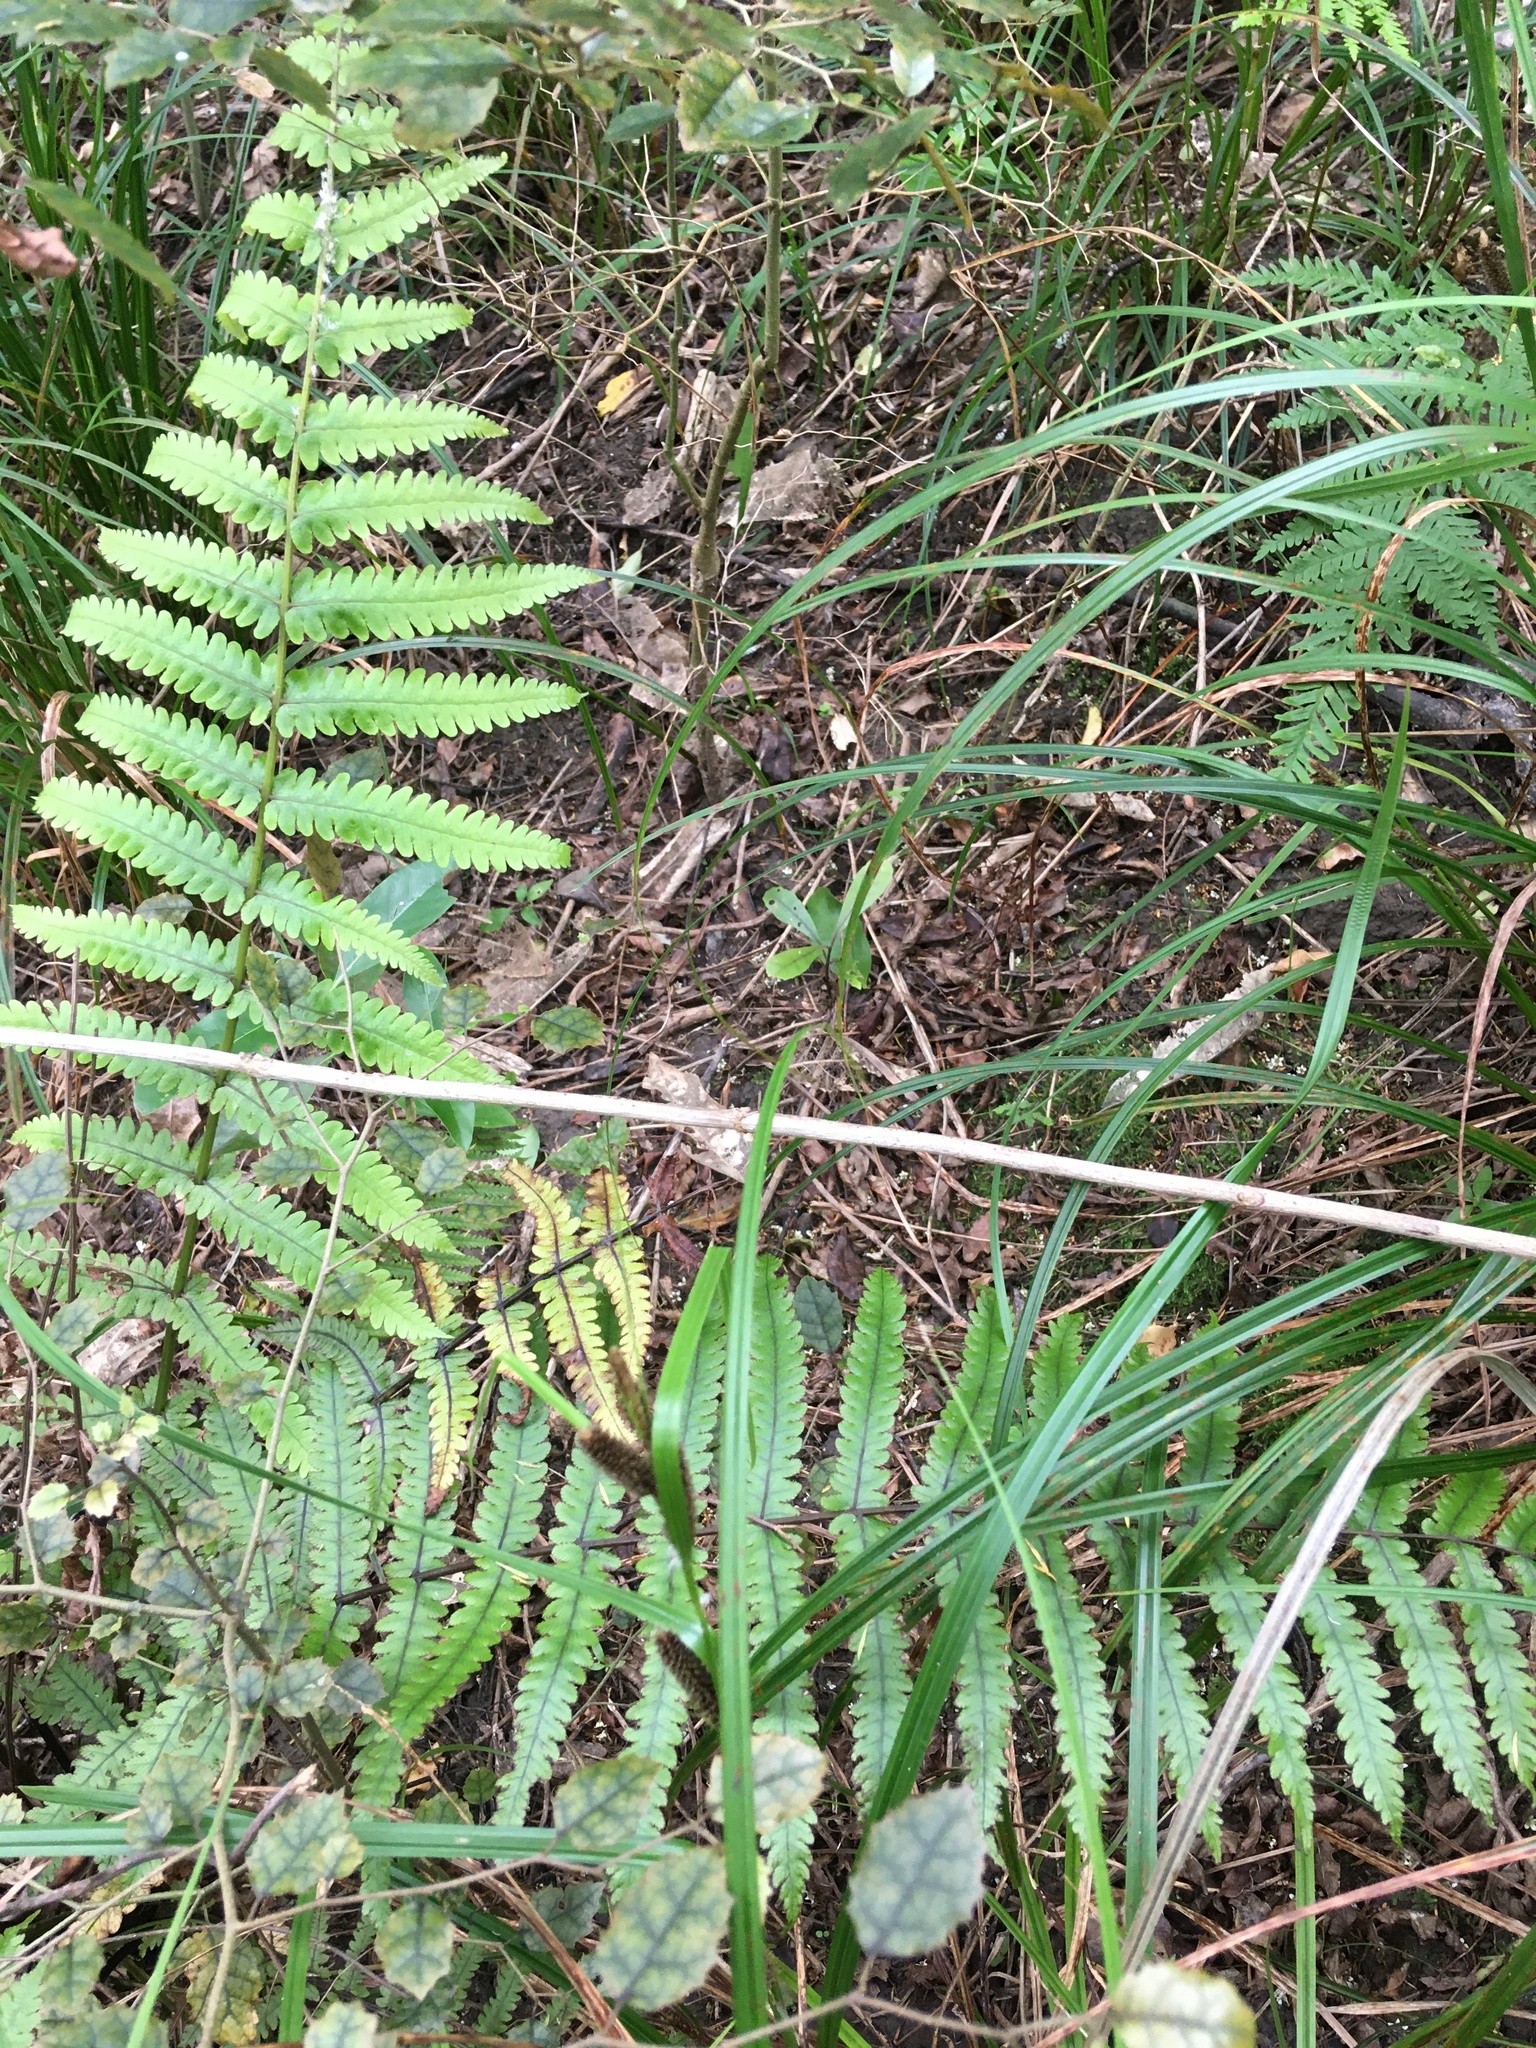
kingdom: Plantae
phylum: Tracheophyta
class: Magnoliopsida
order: Laurales
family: Monimiaceae
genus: Hedycarya
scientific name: Hedycarya arborea
